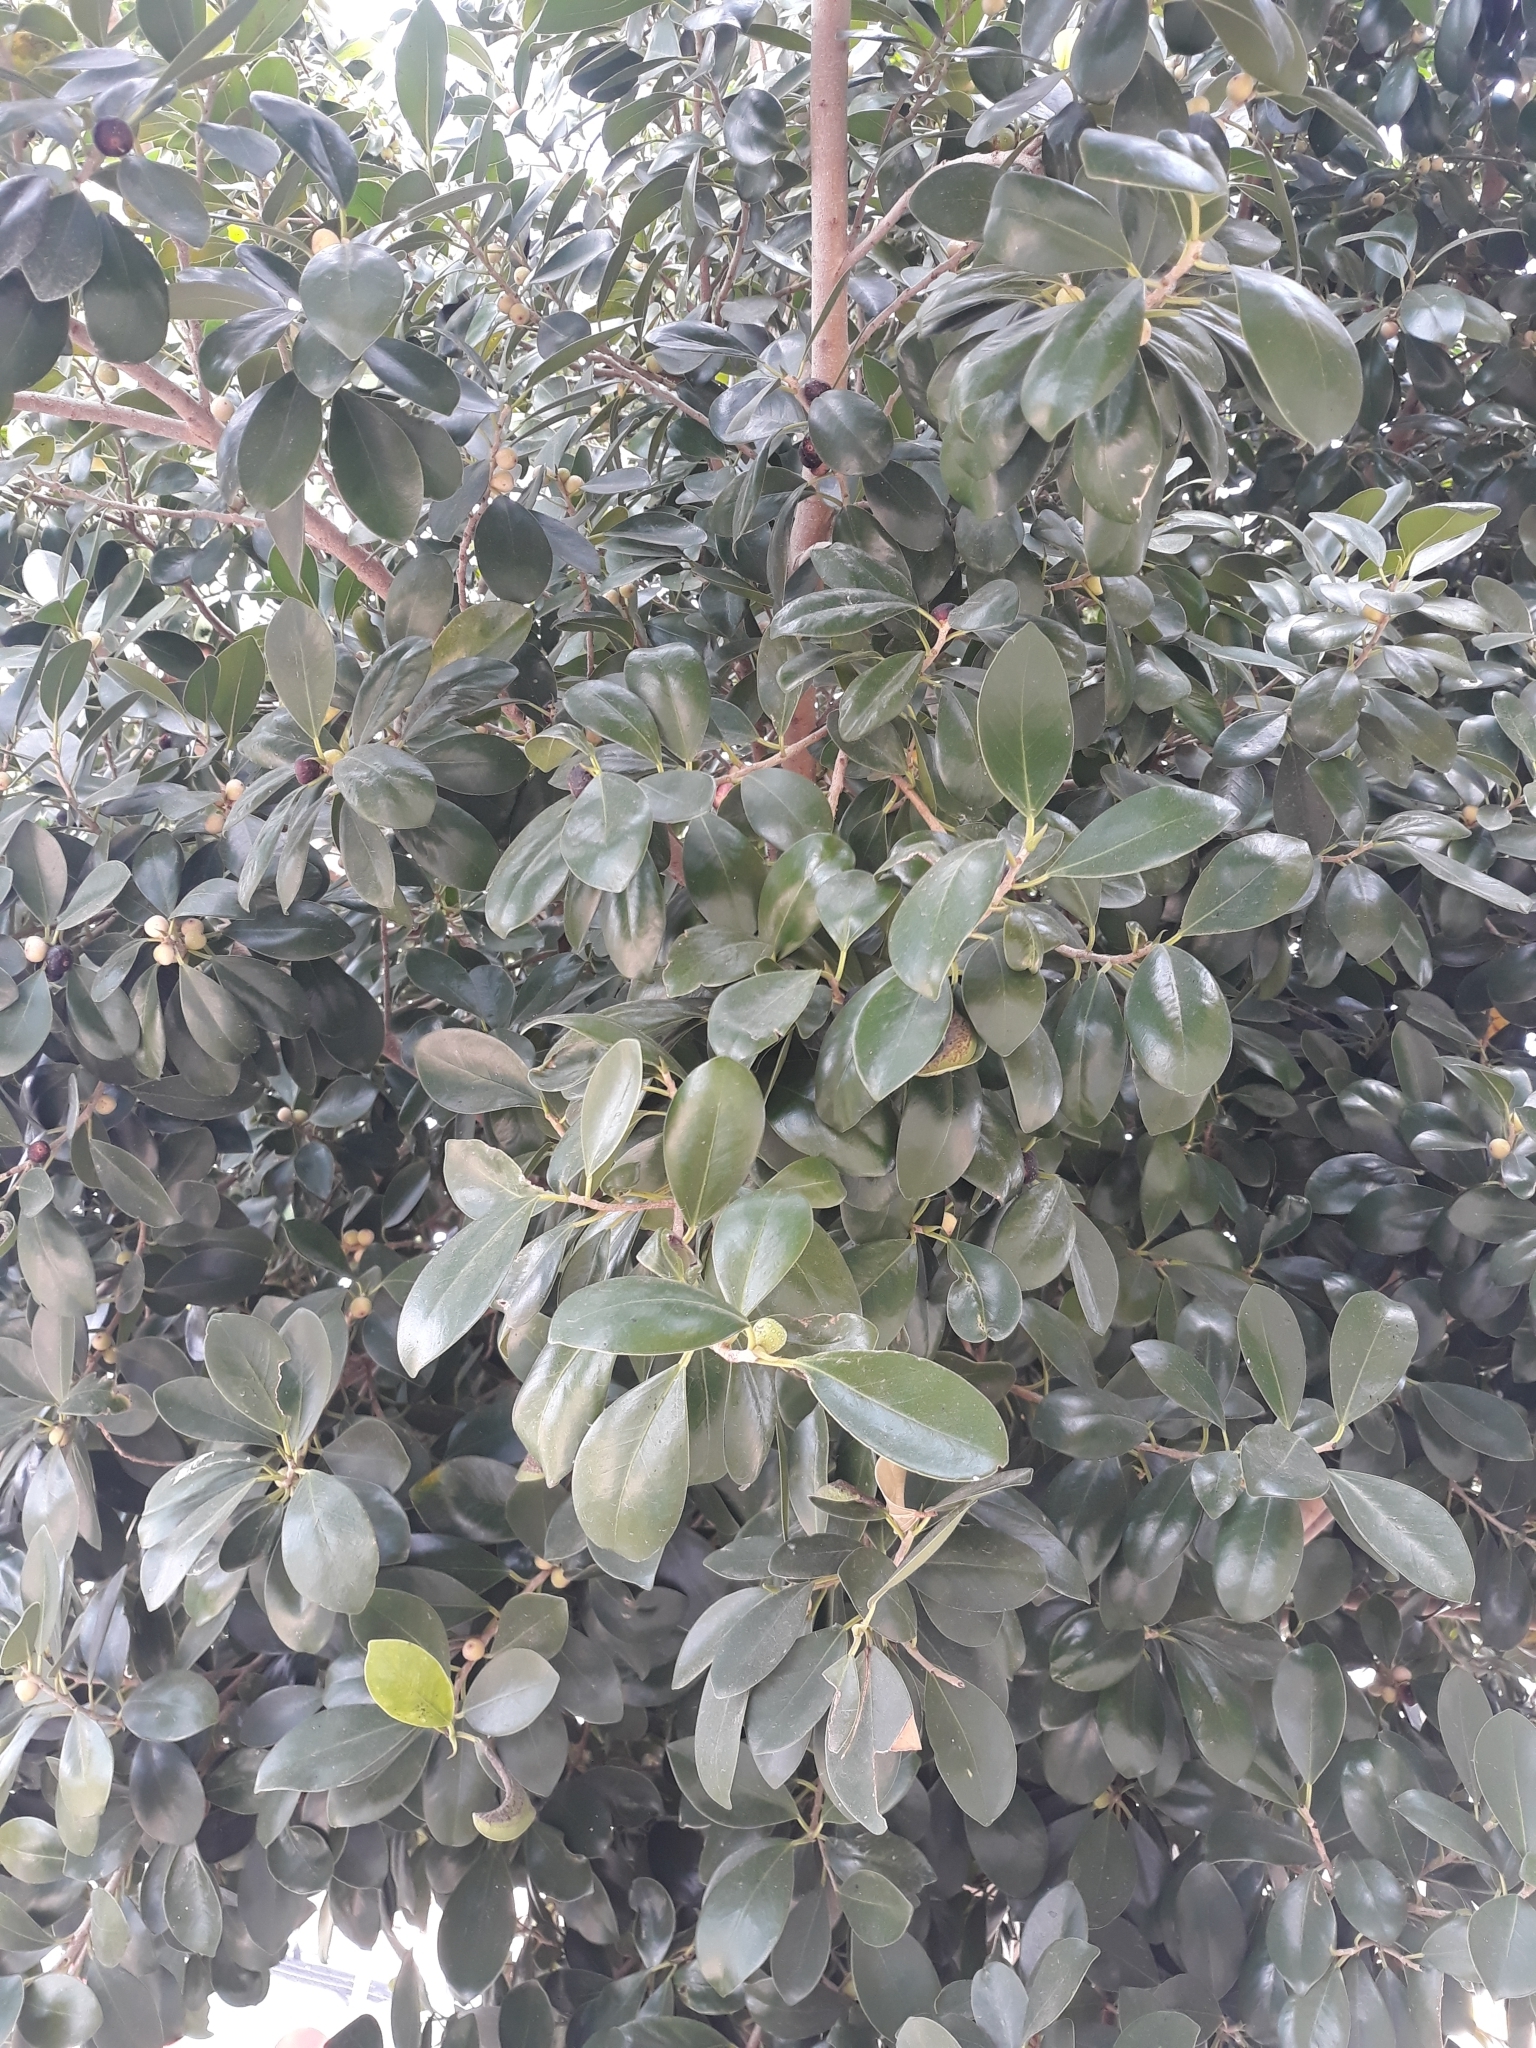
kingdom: Plantae
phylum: Tracheophyta
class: Magnoliopsida
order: Rosales
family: Moraceae
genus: Ficus
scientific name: Ficus elastica
